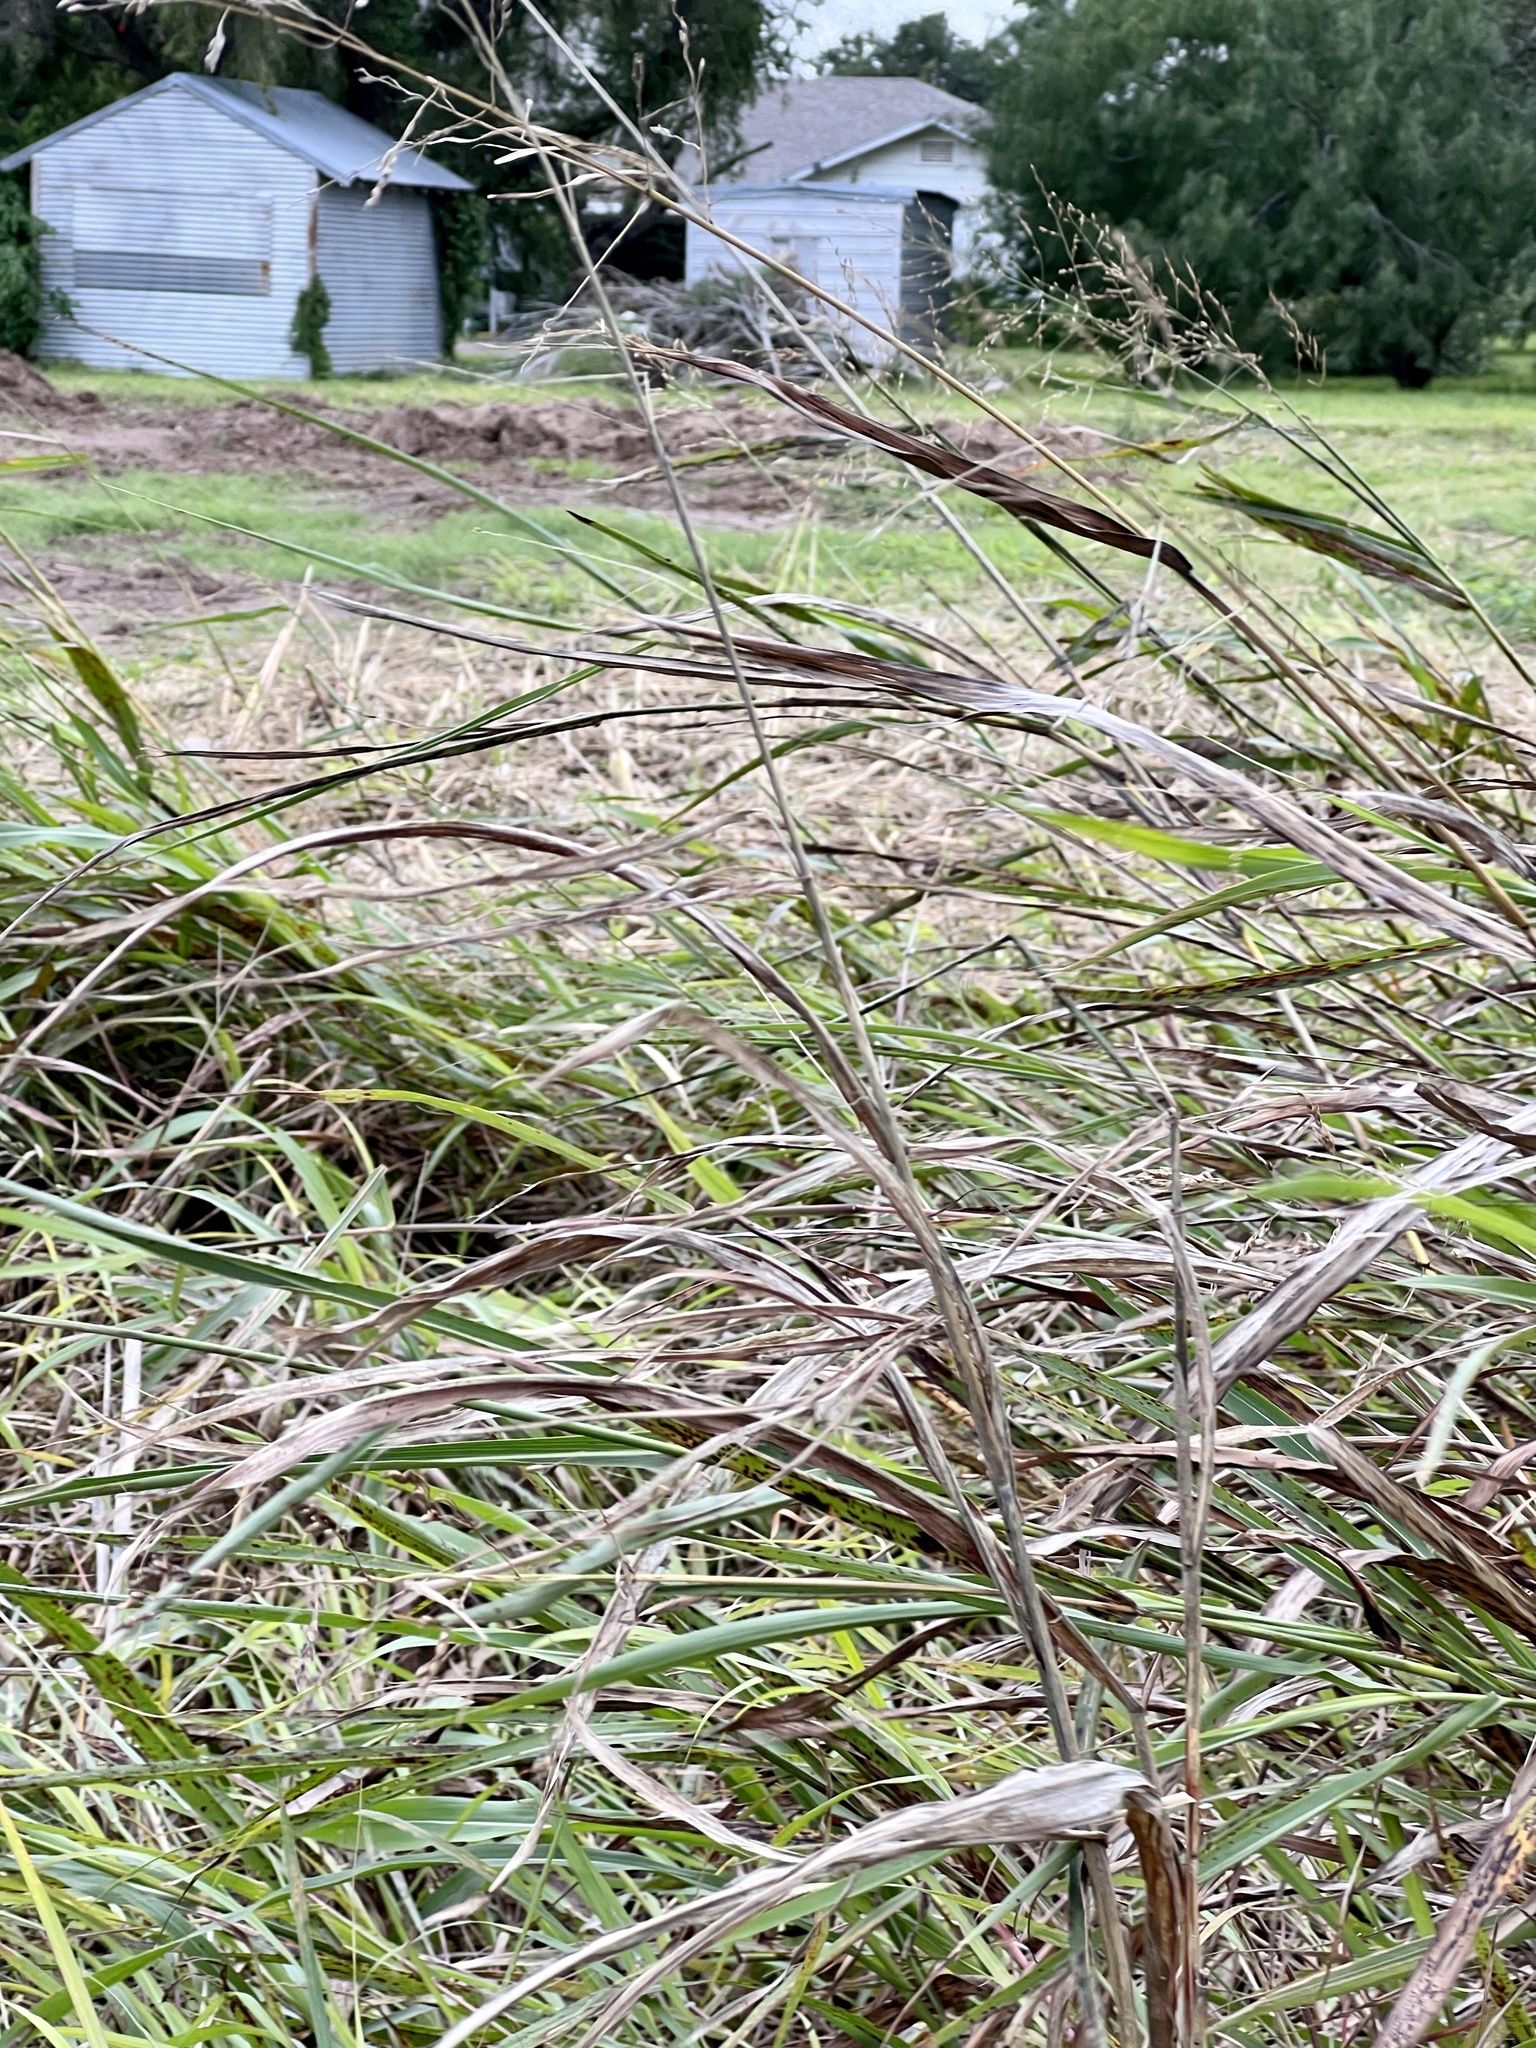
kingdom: Plantae
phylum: Tracheophyta
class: Liliopsida
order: Poales
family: Poaceae
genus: Megathyrsus
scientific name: Megathyrsus maximus
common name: Guineagrass
